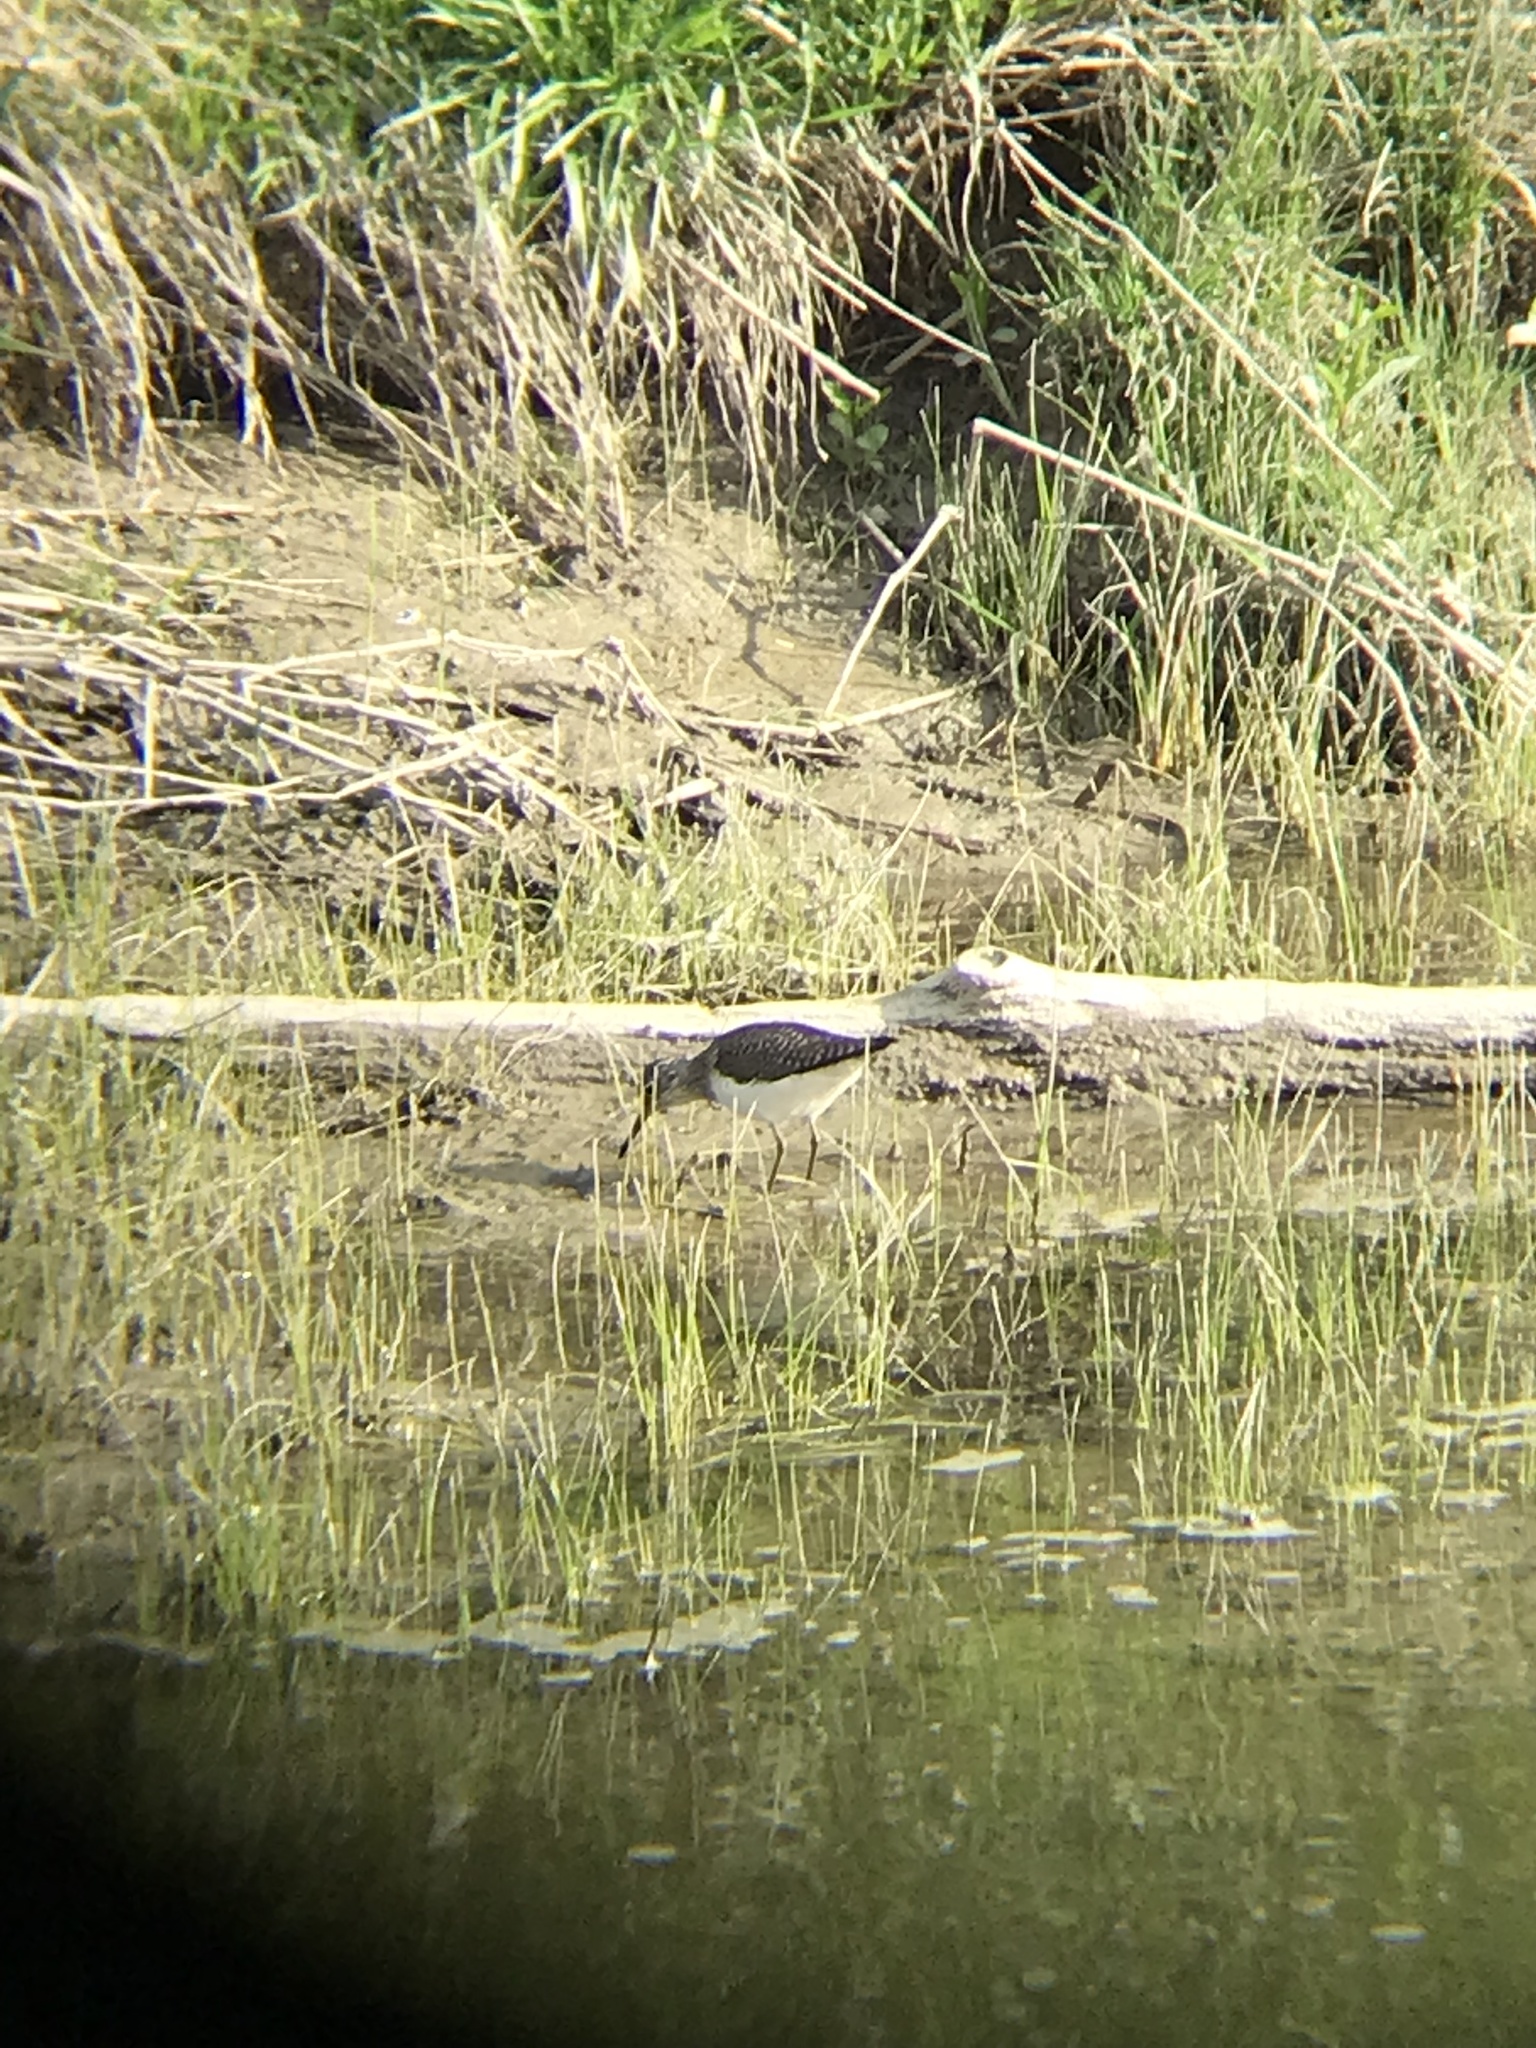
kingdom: Animalia
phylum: Chordata
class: Aves
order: Charadriiformes
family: Scolopacidae
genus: Tringa
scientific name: Tringa solitaria
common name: Solitary sandpiper
